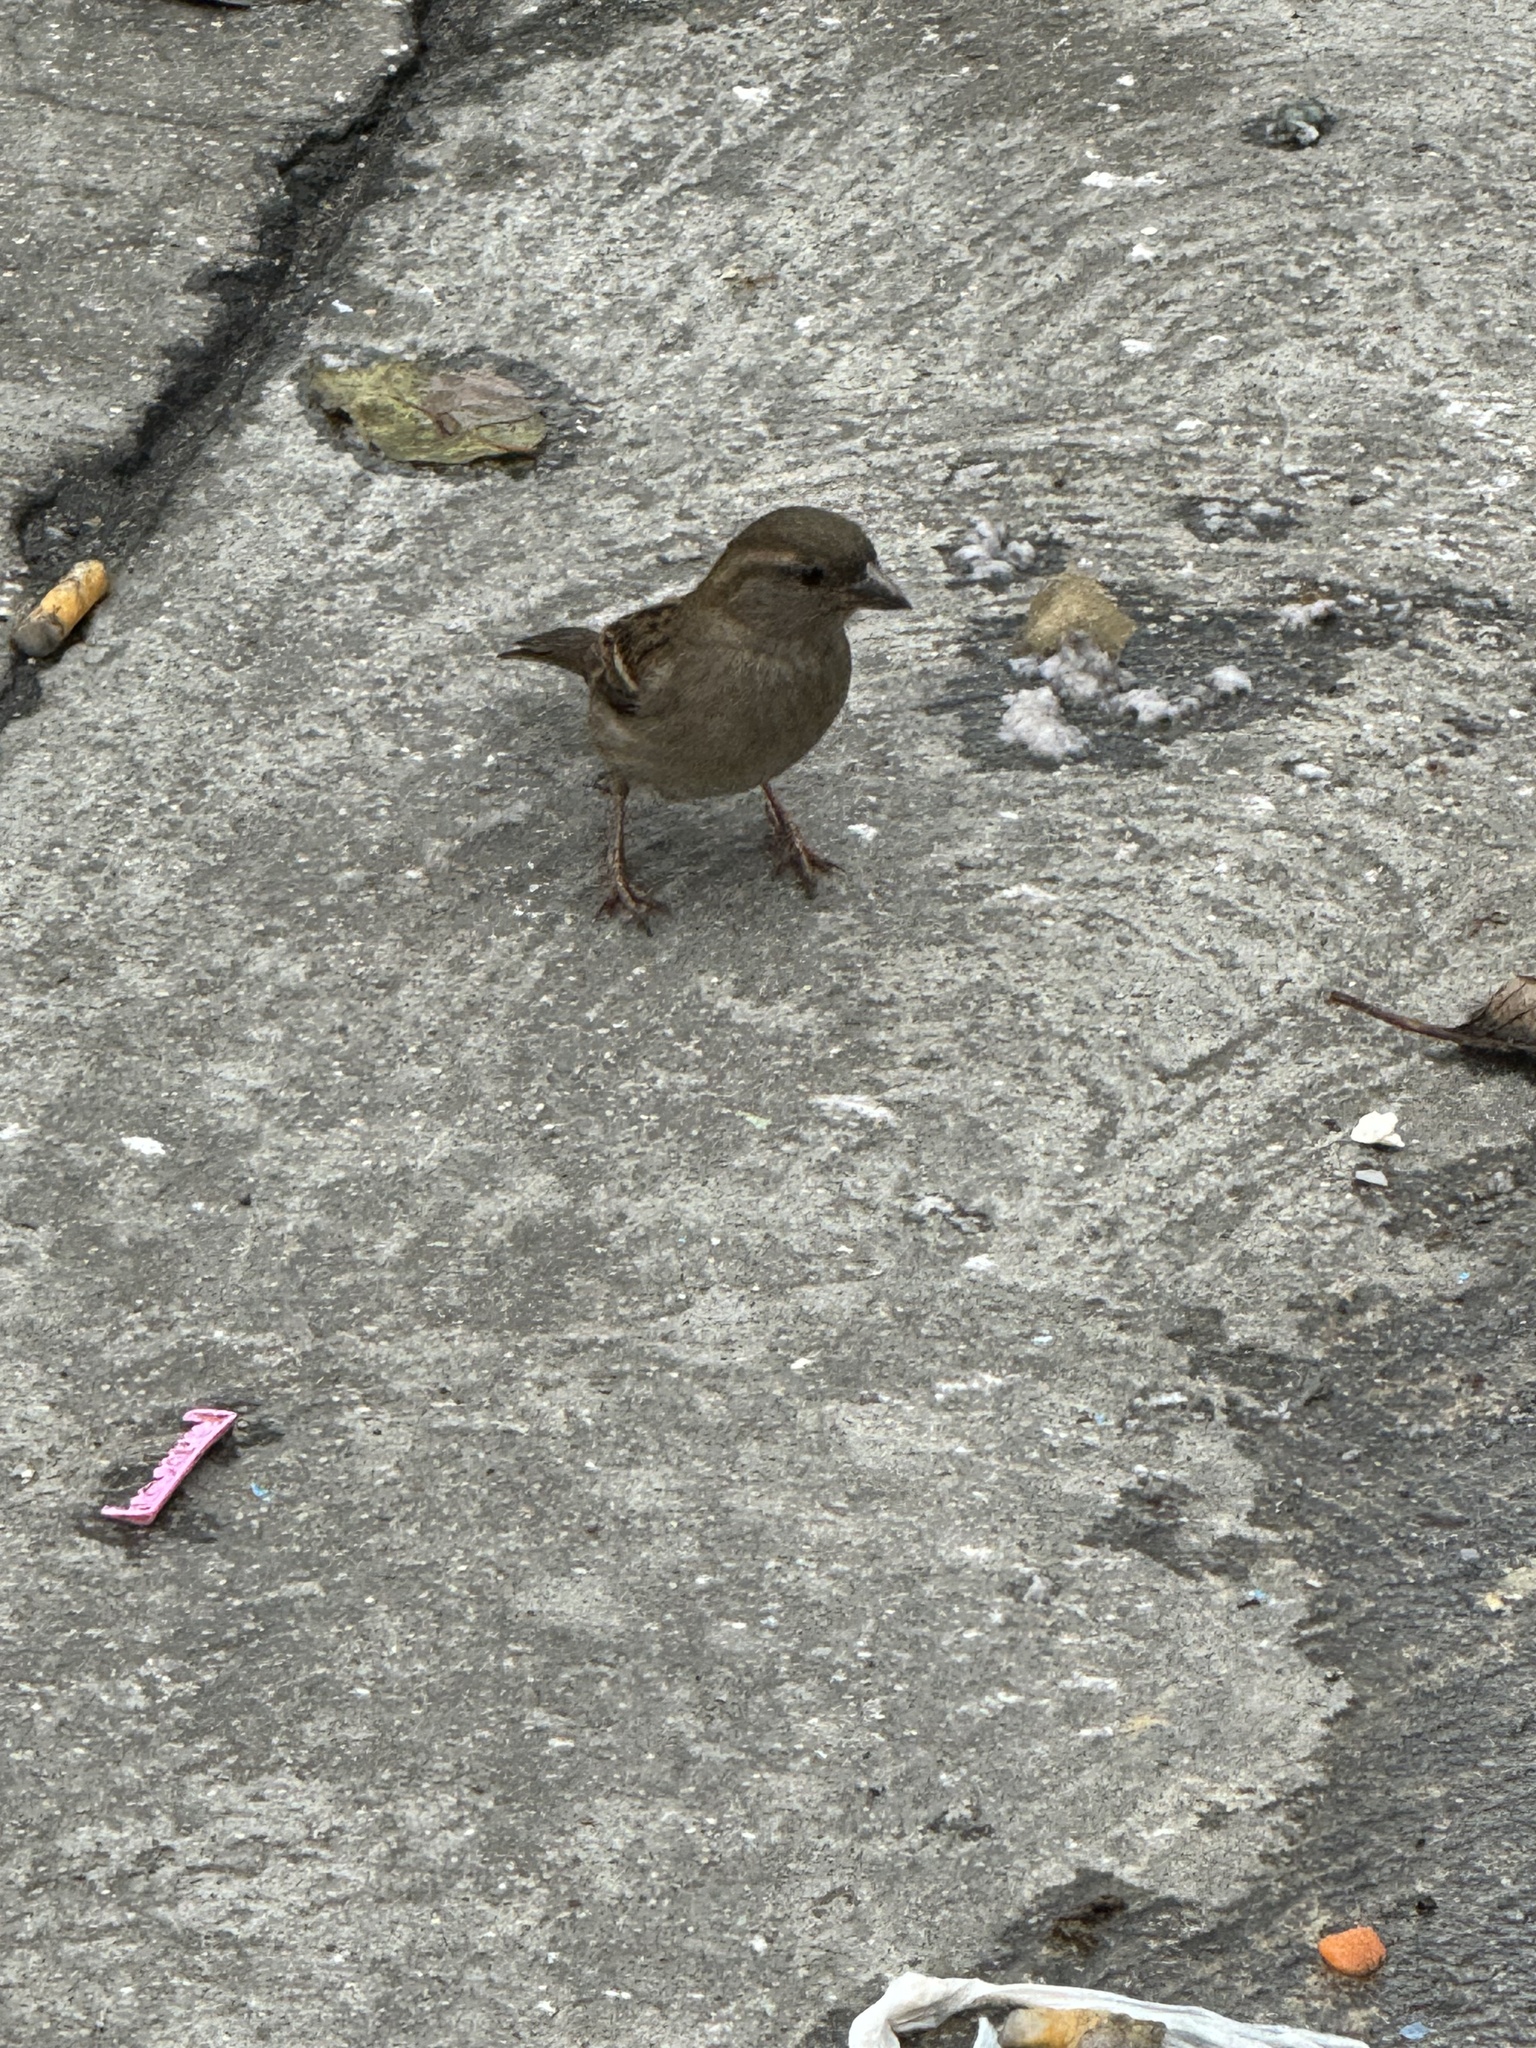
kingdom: Animalia
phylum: Chordata
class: Aves
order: Passeriformes
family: Passeridae
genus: Passer
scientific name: Passer domesticus
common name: House sparrow
